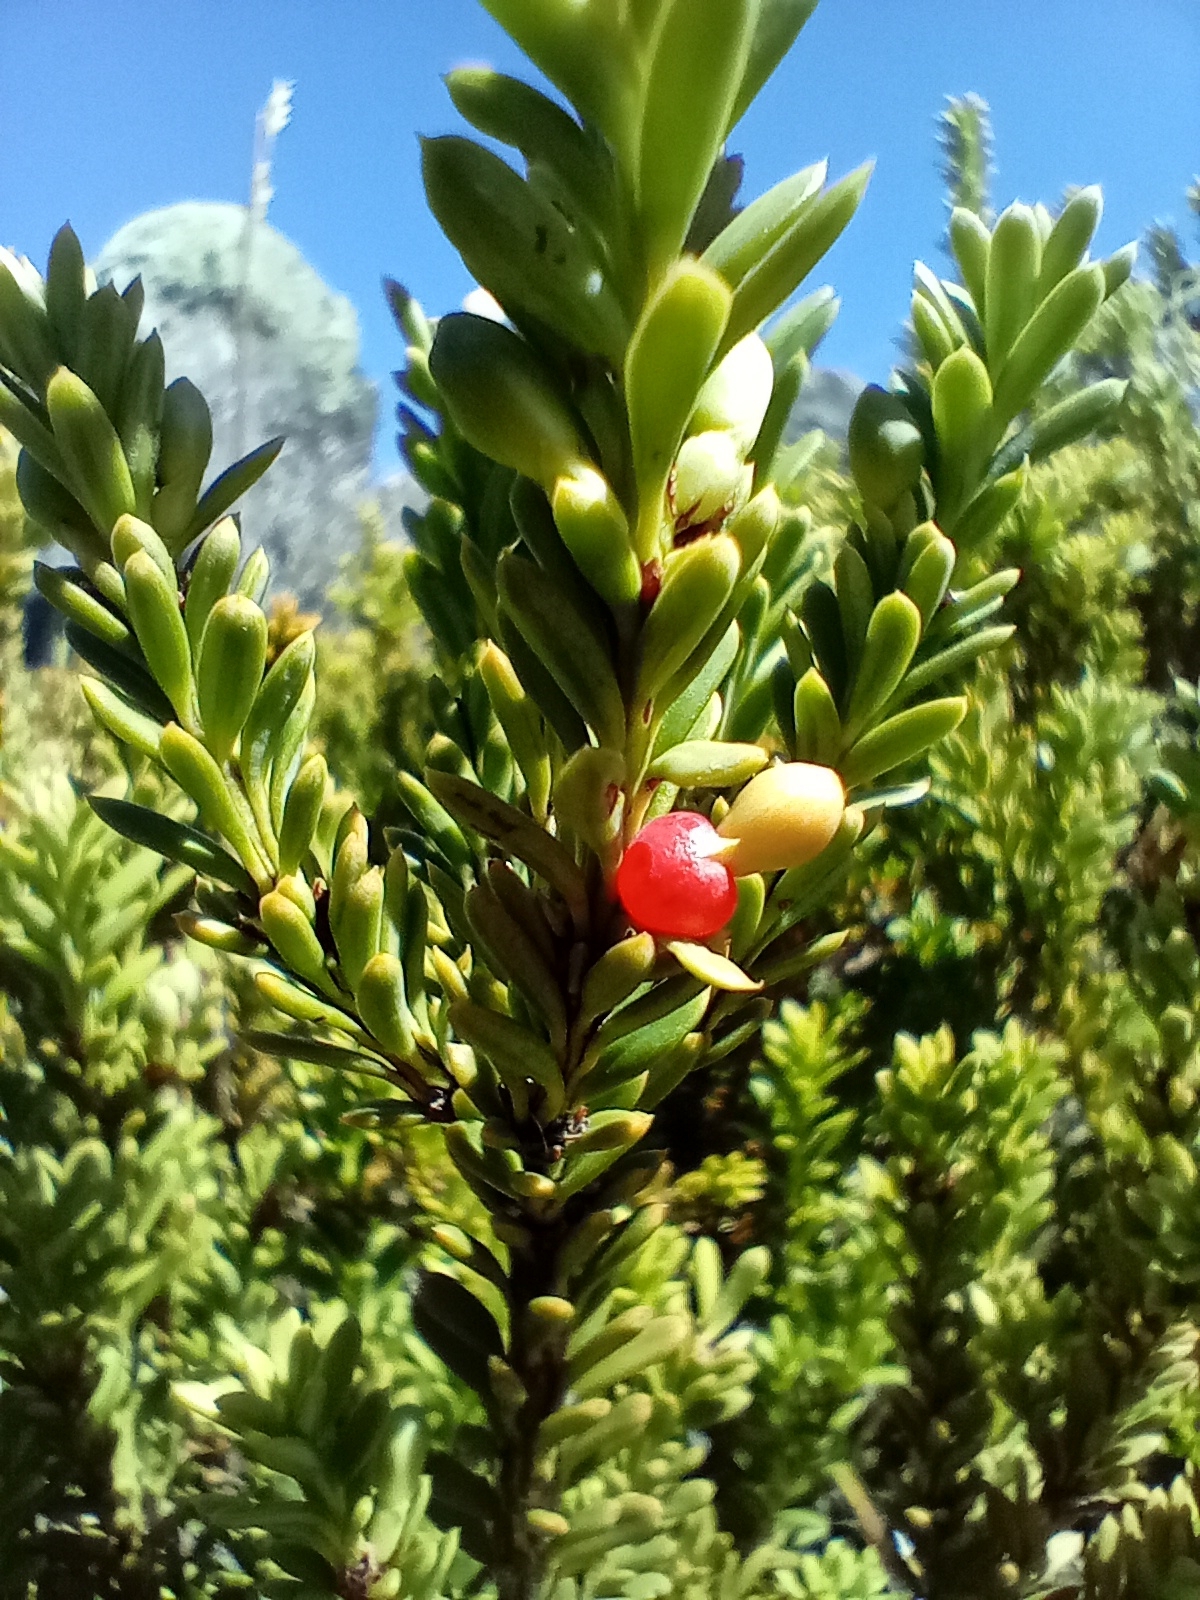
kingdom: Plantae
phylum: Tracheophyta
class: Pinopsida
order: Pinales
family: Podocarpaceae
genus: Podocarpus
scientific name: Podocarpus nivalis
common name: Alpine totara
